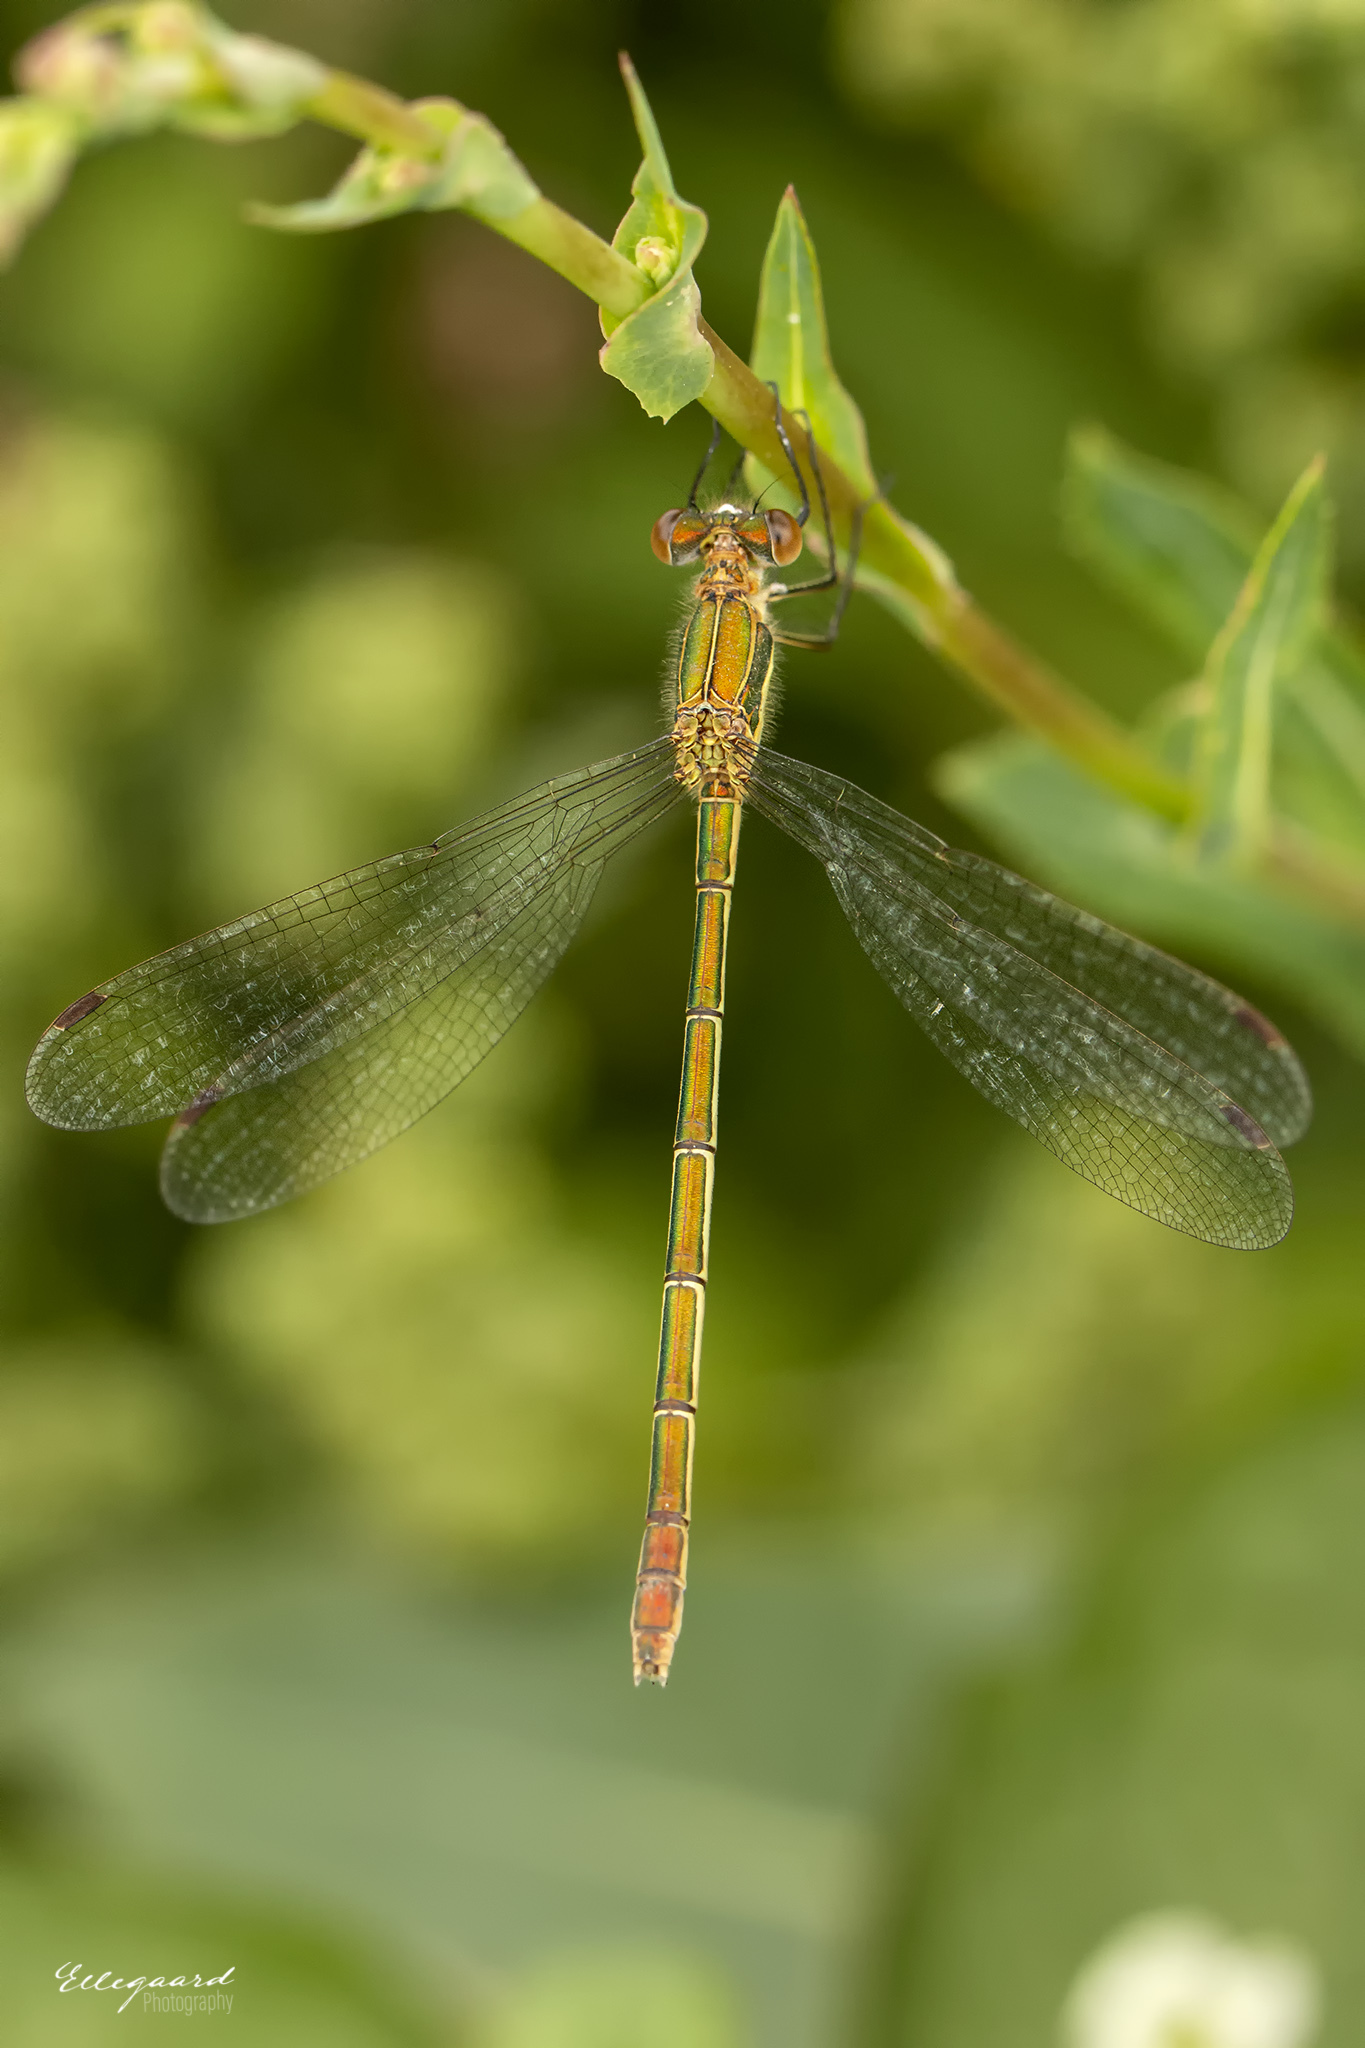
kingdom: Animalia
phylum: Arthropoda
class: Insecta
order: Odonata
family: Lestidae
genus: Lestes
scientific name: Lestes sponsa
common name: Common spreadwing
